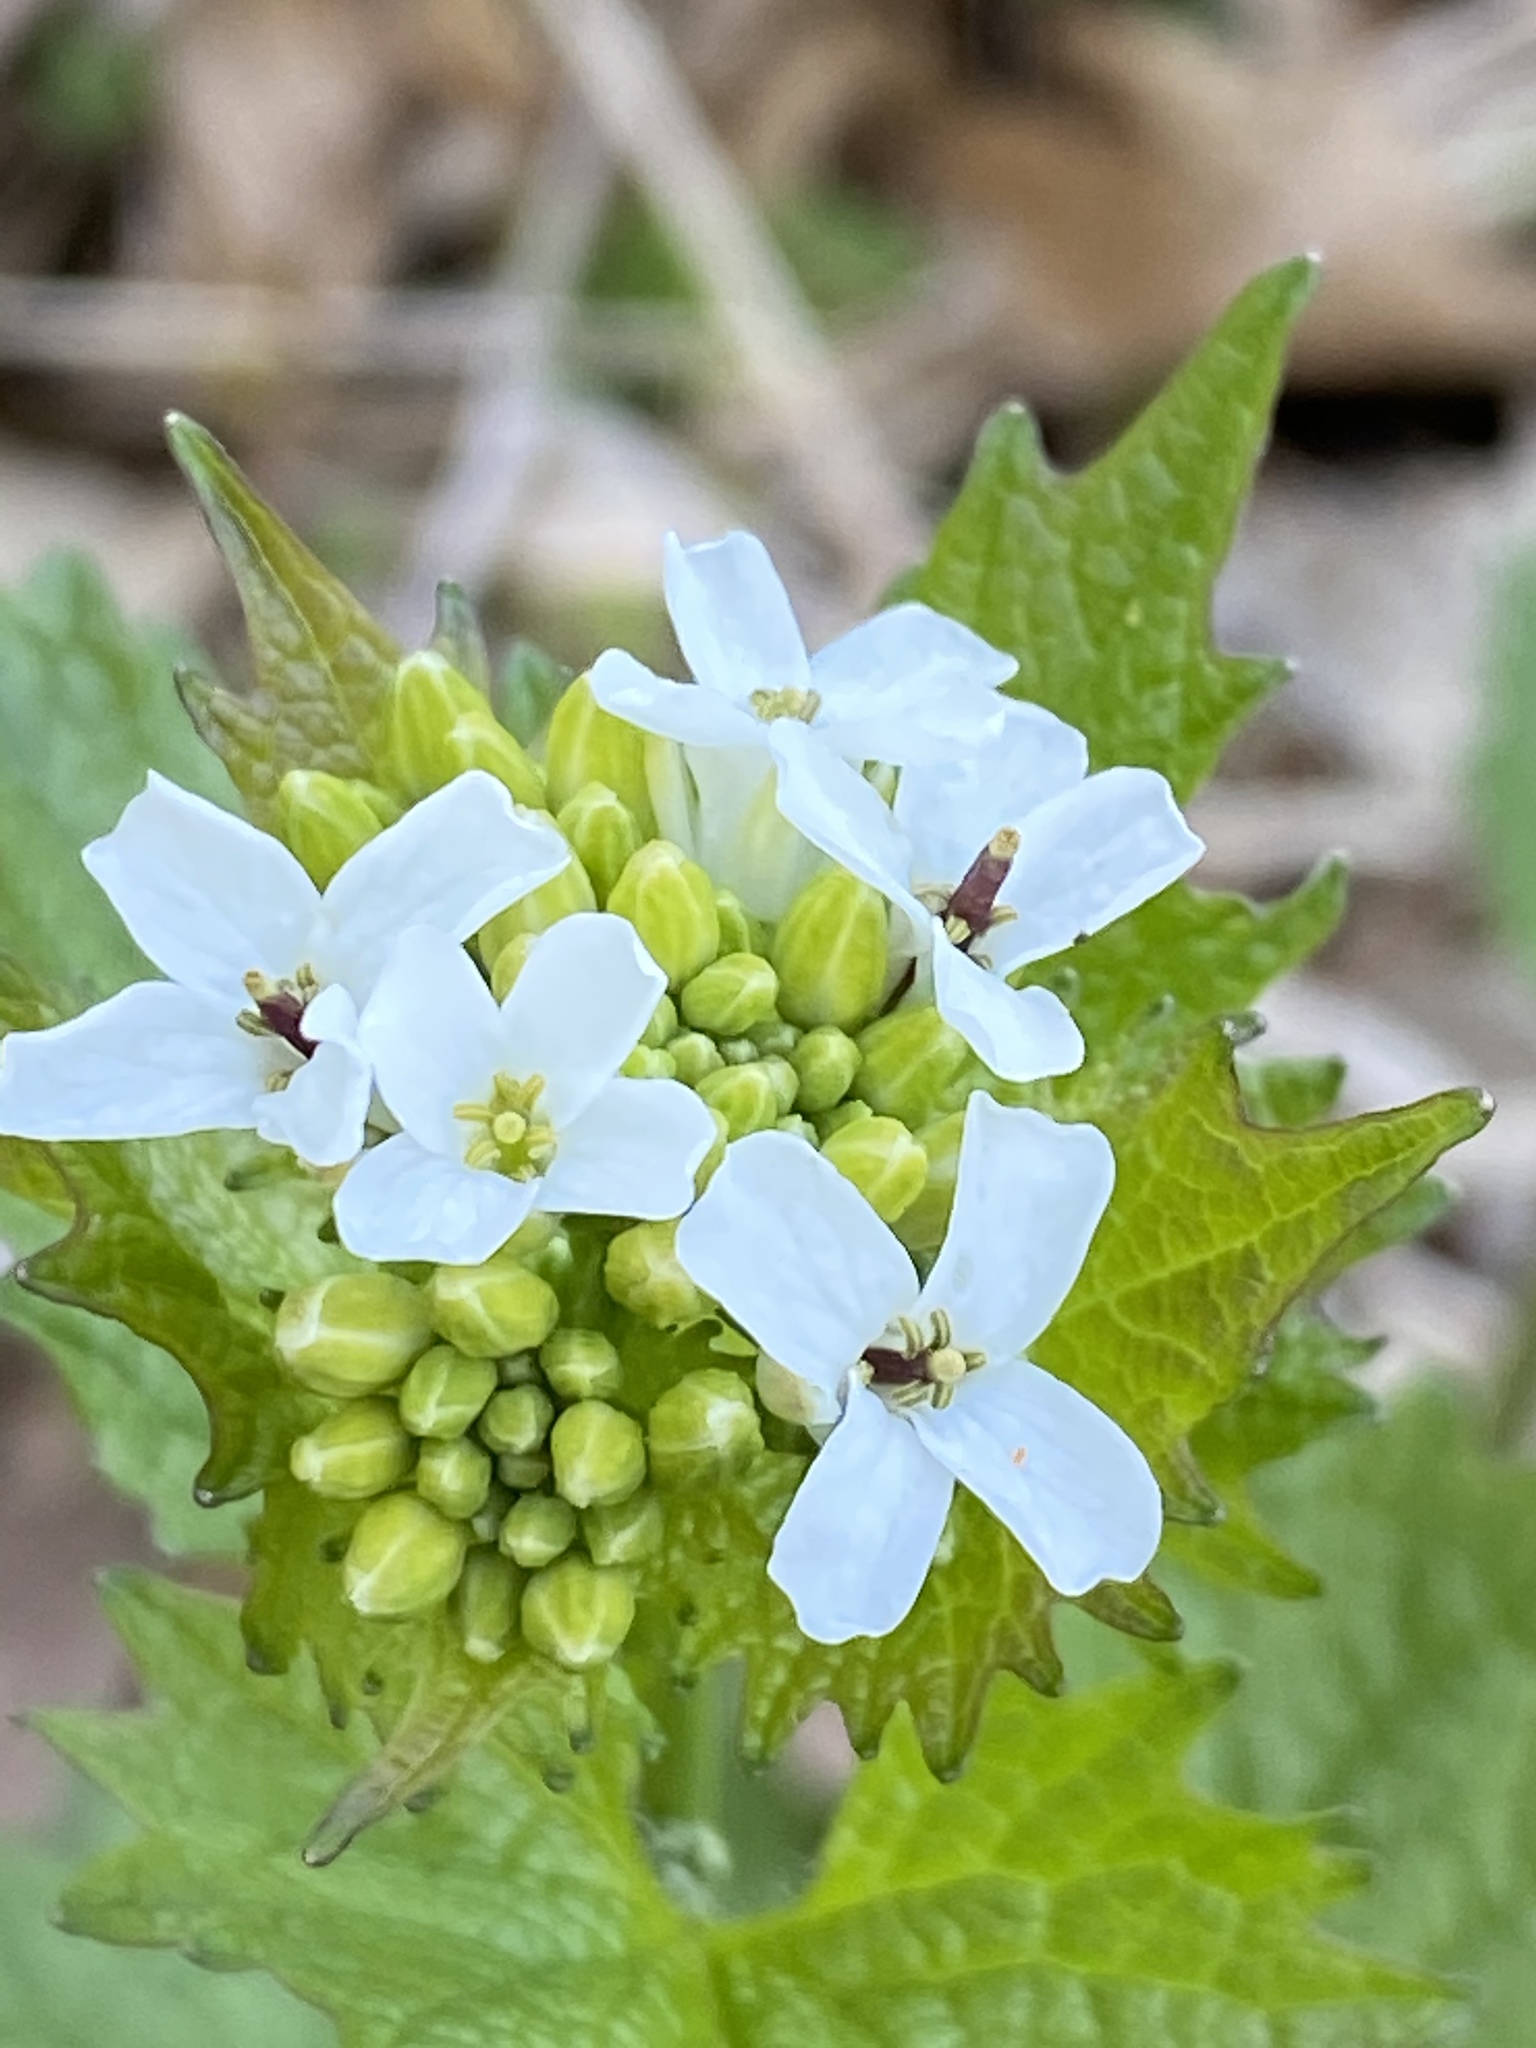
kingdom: Plantae
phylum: Tracheophyta
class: Magnoliopsida
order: Brassicales
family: Brassicaceae
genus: Alliaria
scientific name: Alliaria petiolata
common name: Garlic mustard
